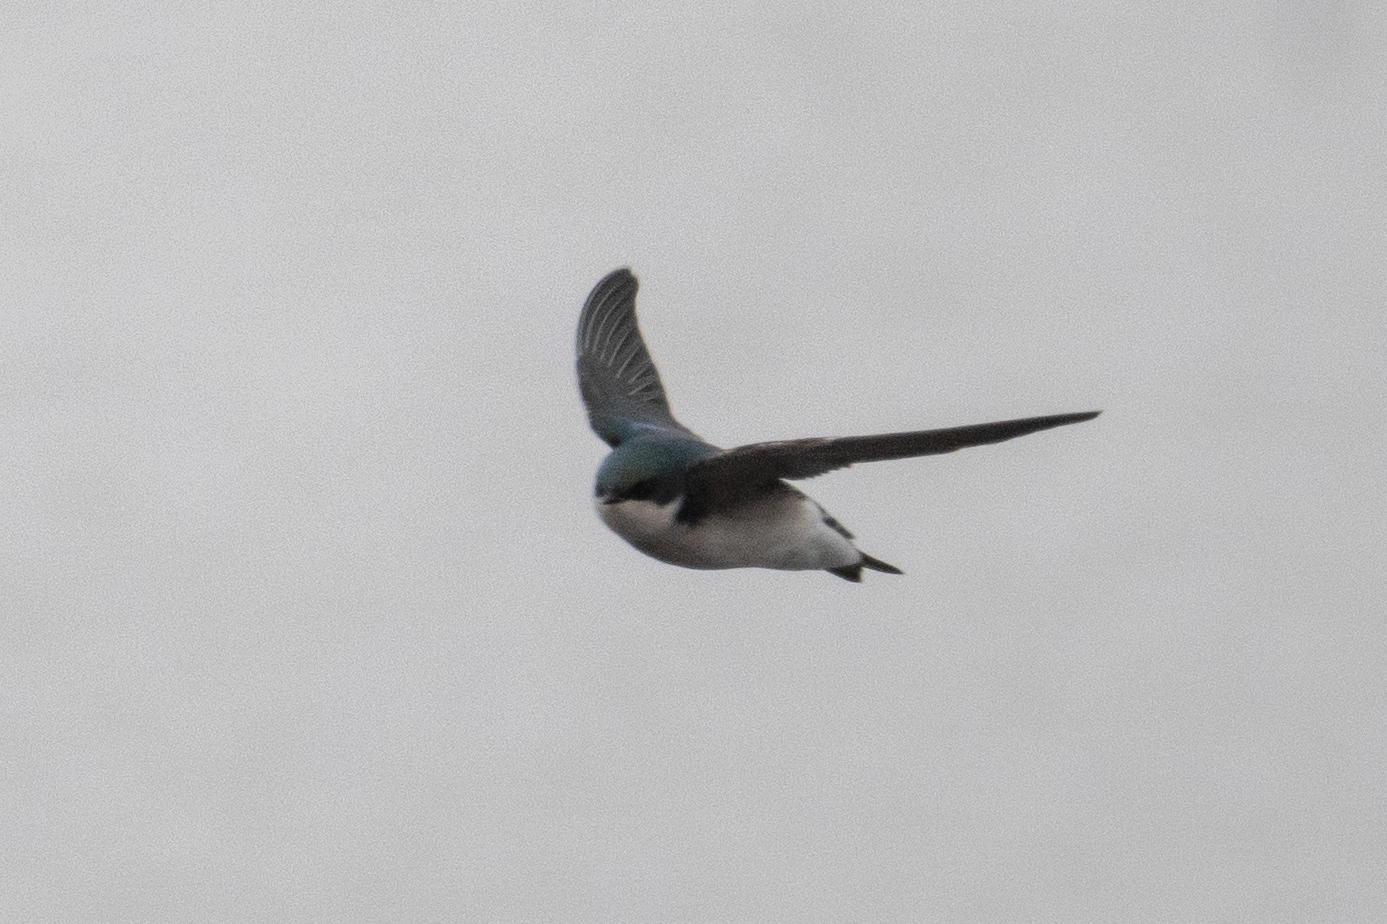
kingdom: Animalia
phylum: Chordata
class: Aves
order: Passeriformes
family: Hirundinidae
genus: Tachycineta
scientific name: Tachycineta bicolor
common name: Tree swallow
